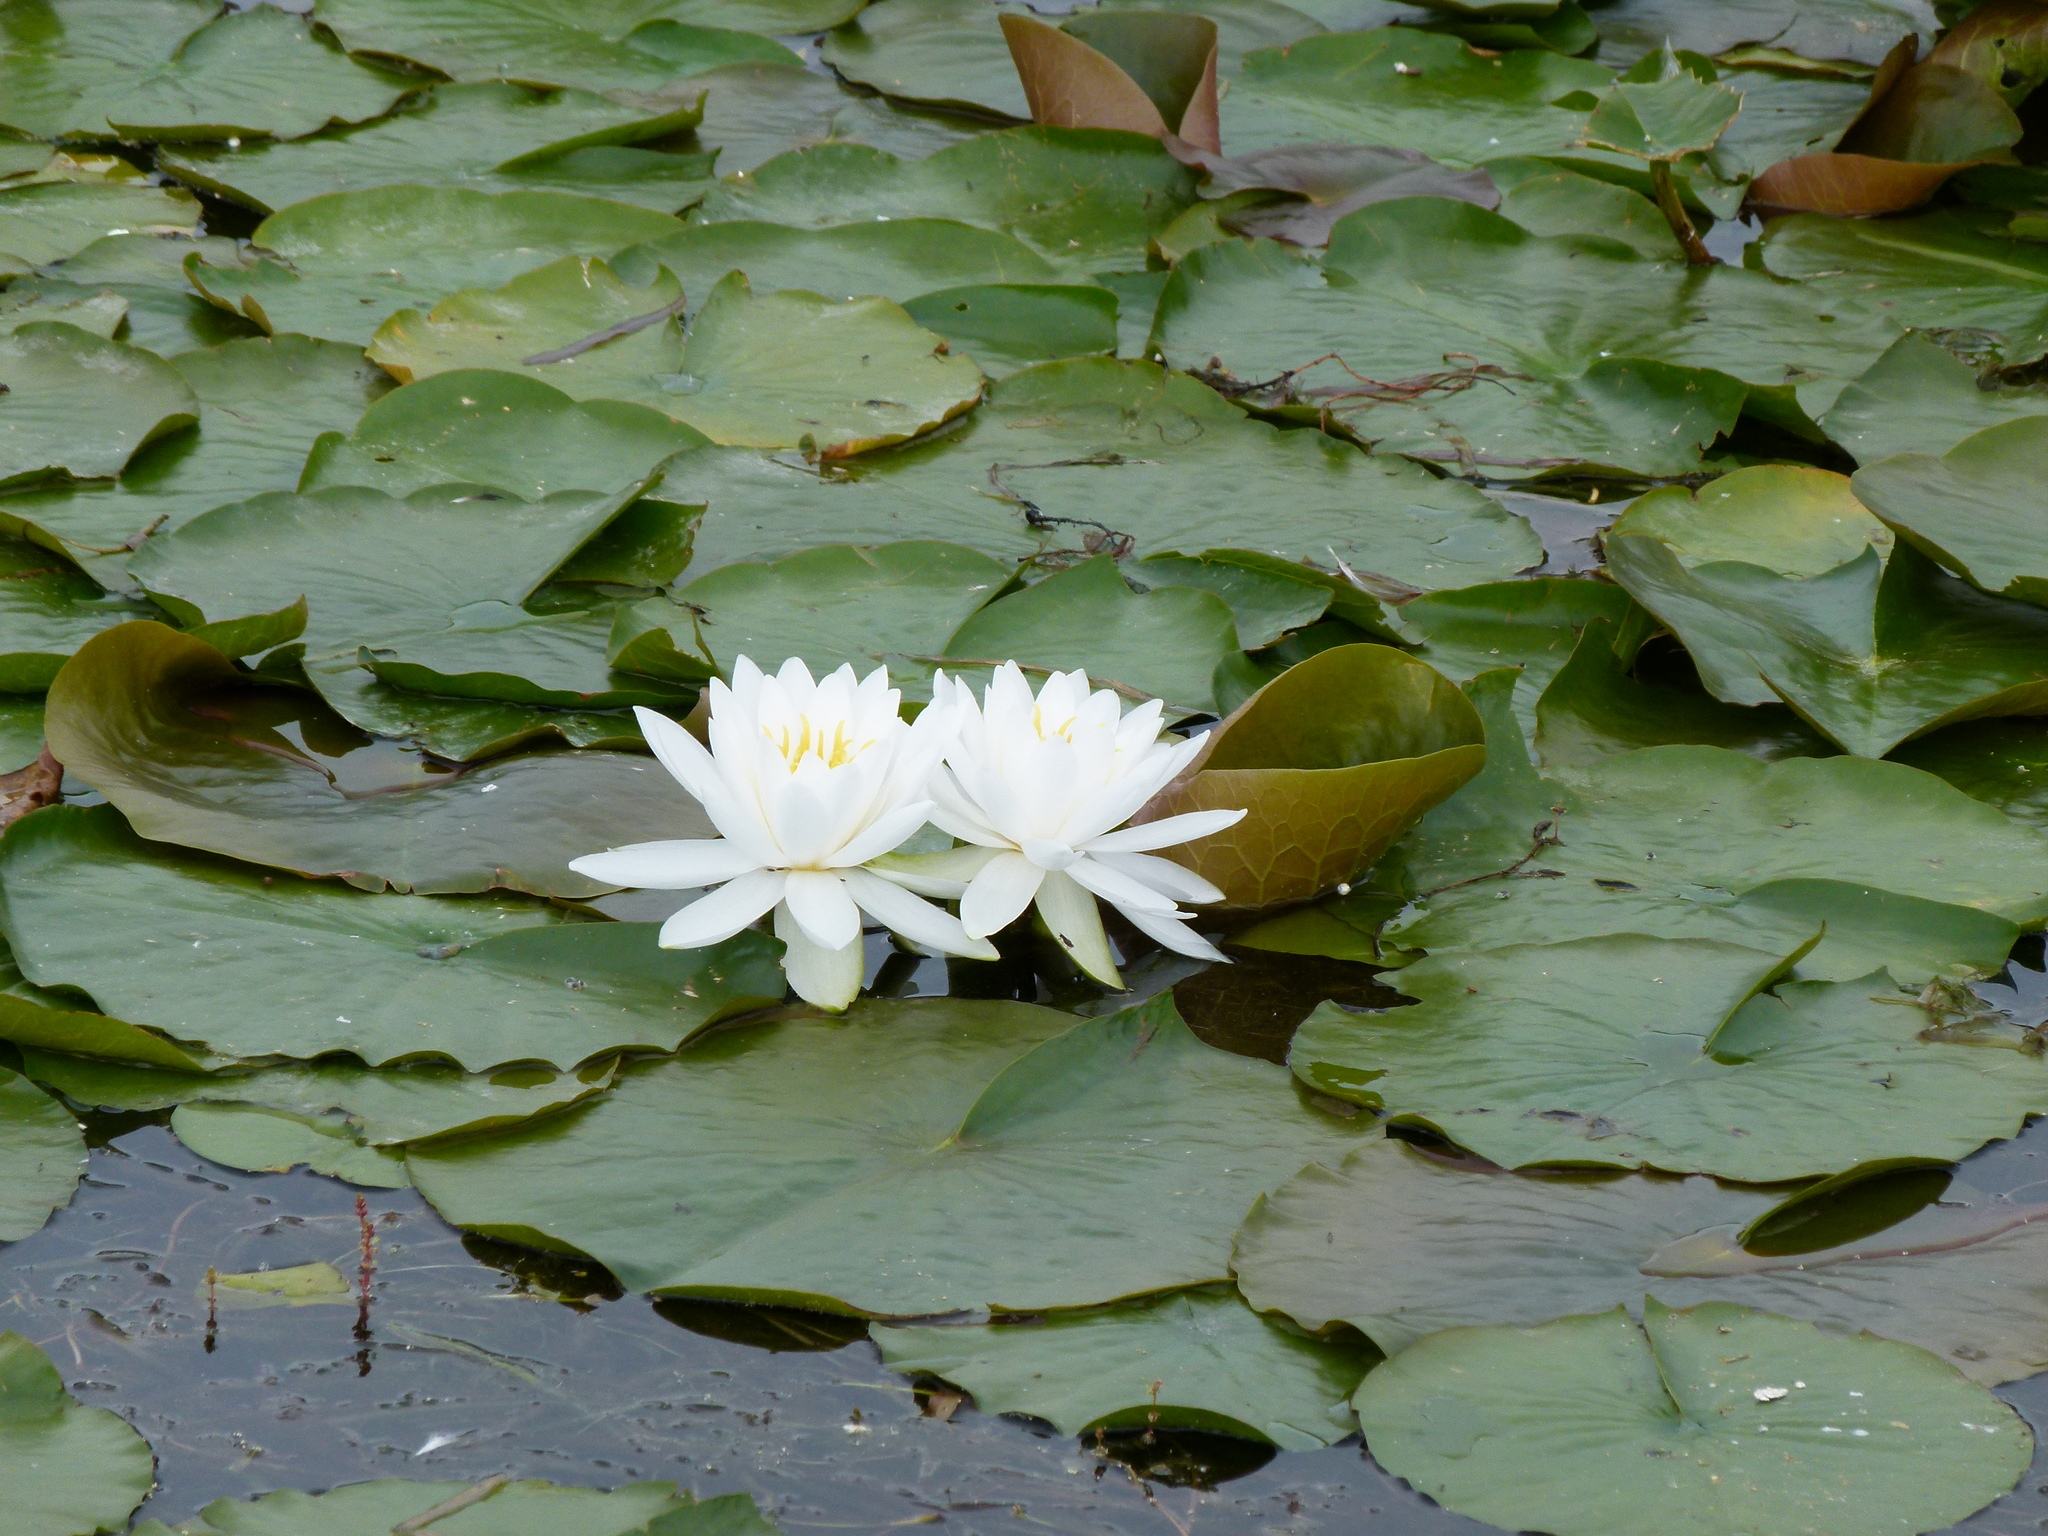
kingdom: Plantae
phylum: Tracheophyta
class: Magnoliopsida
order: Nymphaeales
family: Nymphaeaceae
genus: Nymphaea
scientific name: Nymphaea odorata
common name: Fragrant water-lily
